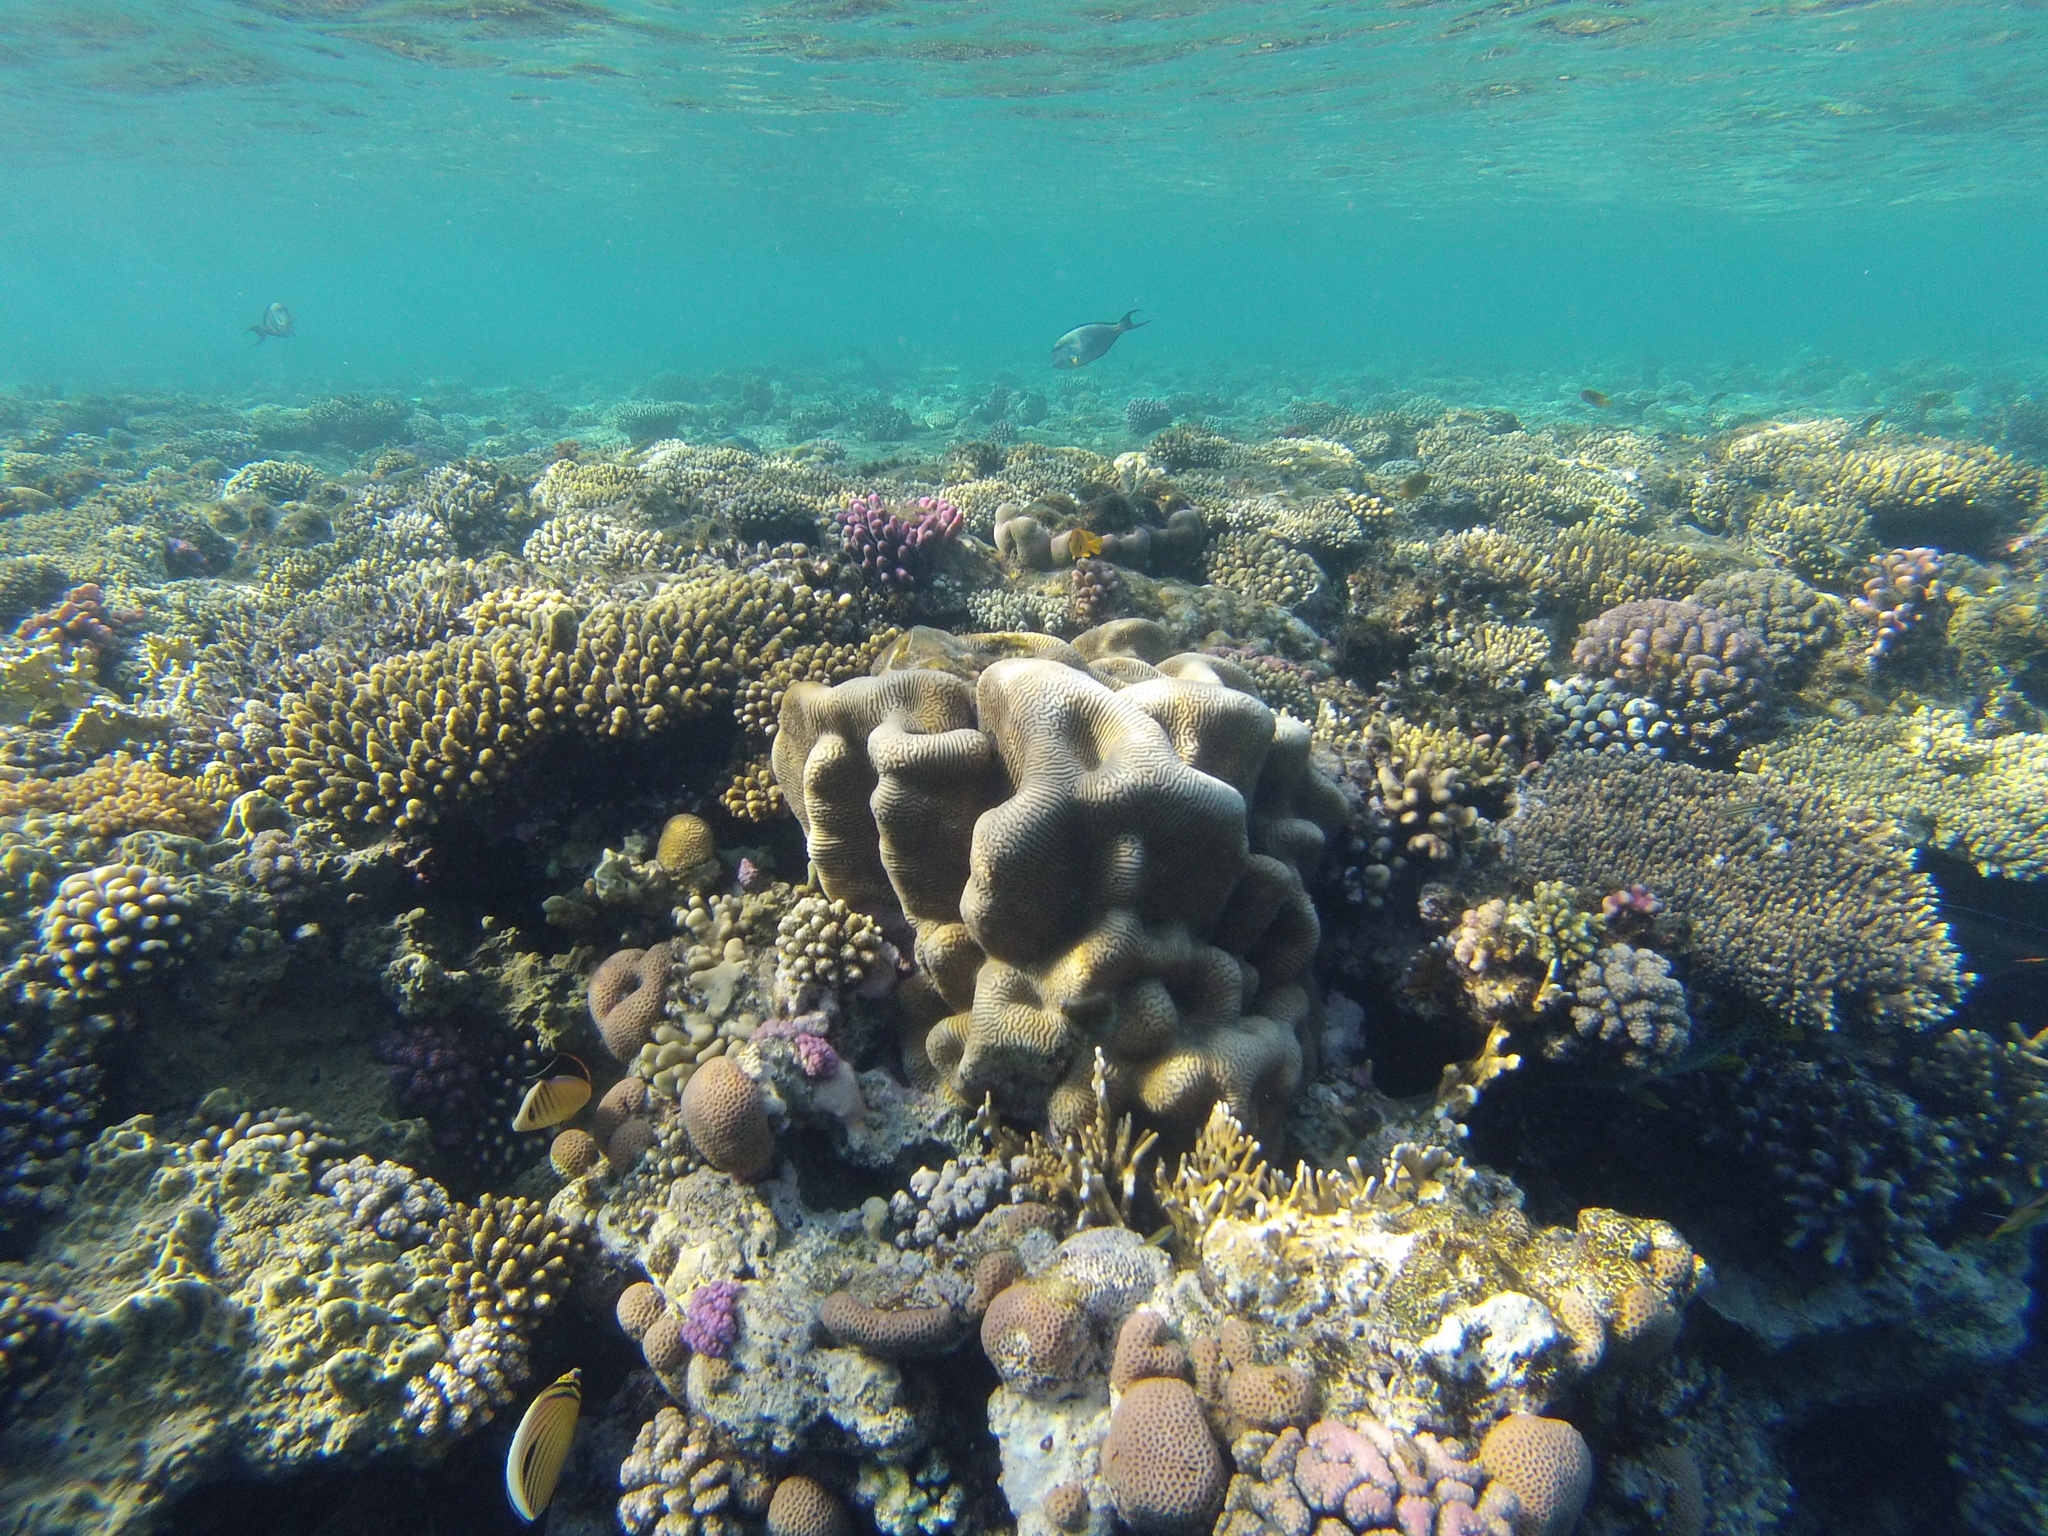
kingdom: Animalia
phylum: Chordata
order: Perciformes
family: Chaetodontidae
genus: Chaetodon
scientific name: Chaetodon austriacus
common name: Exquisite butterflyfish
